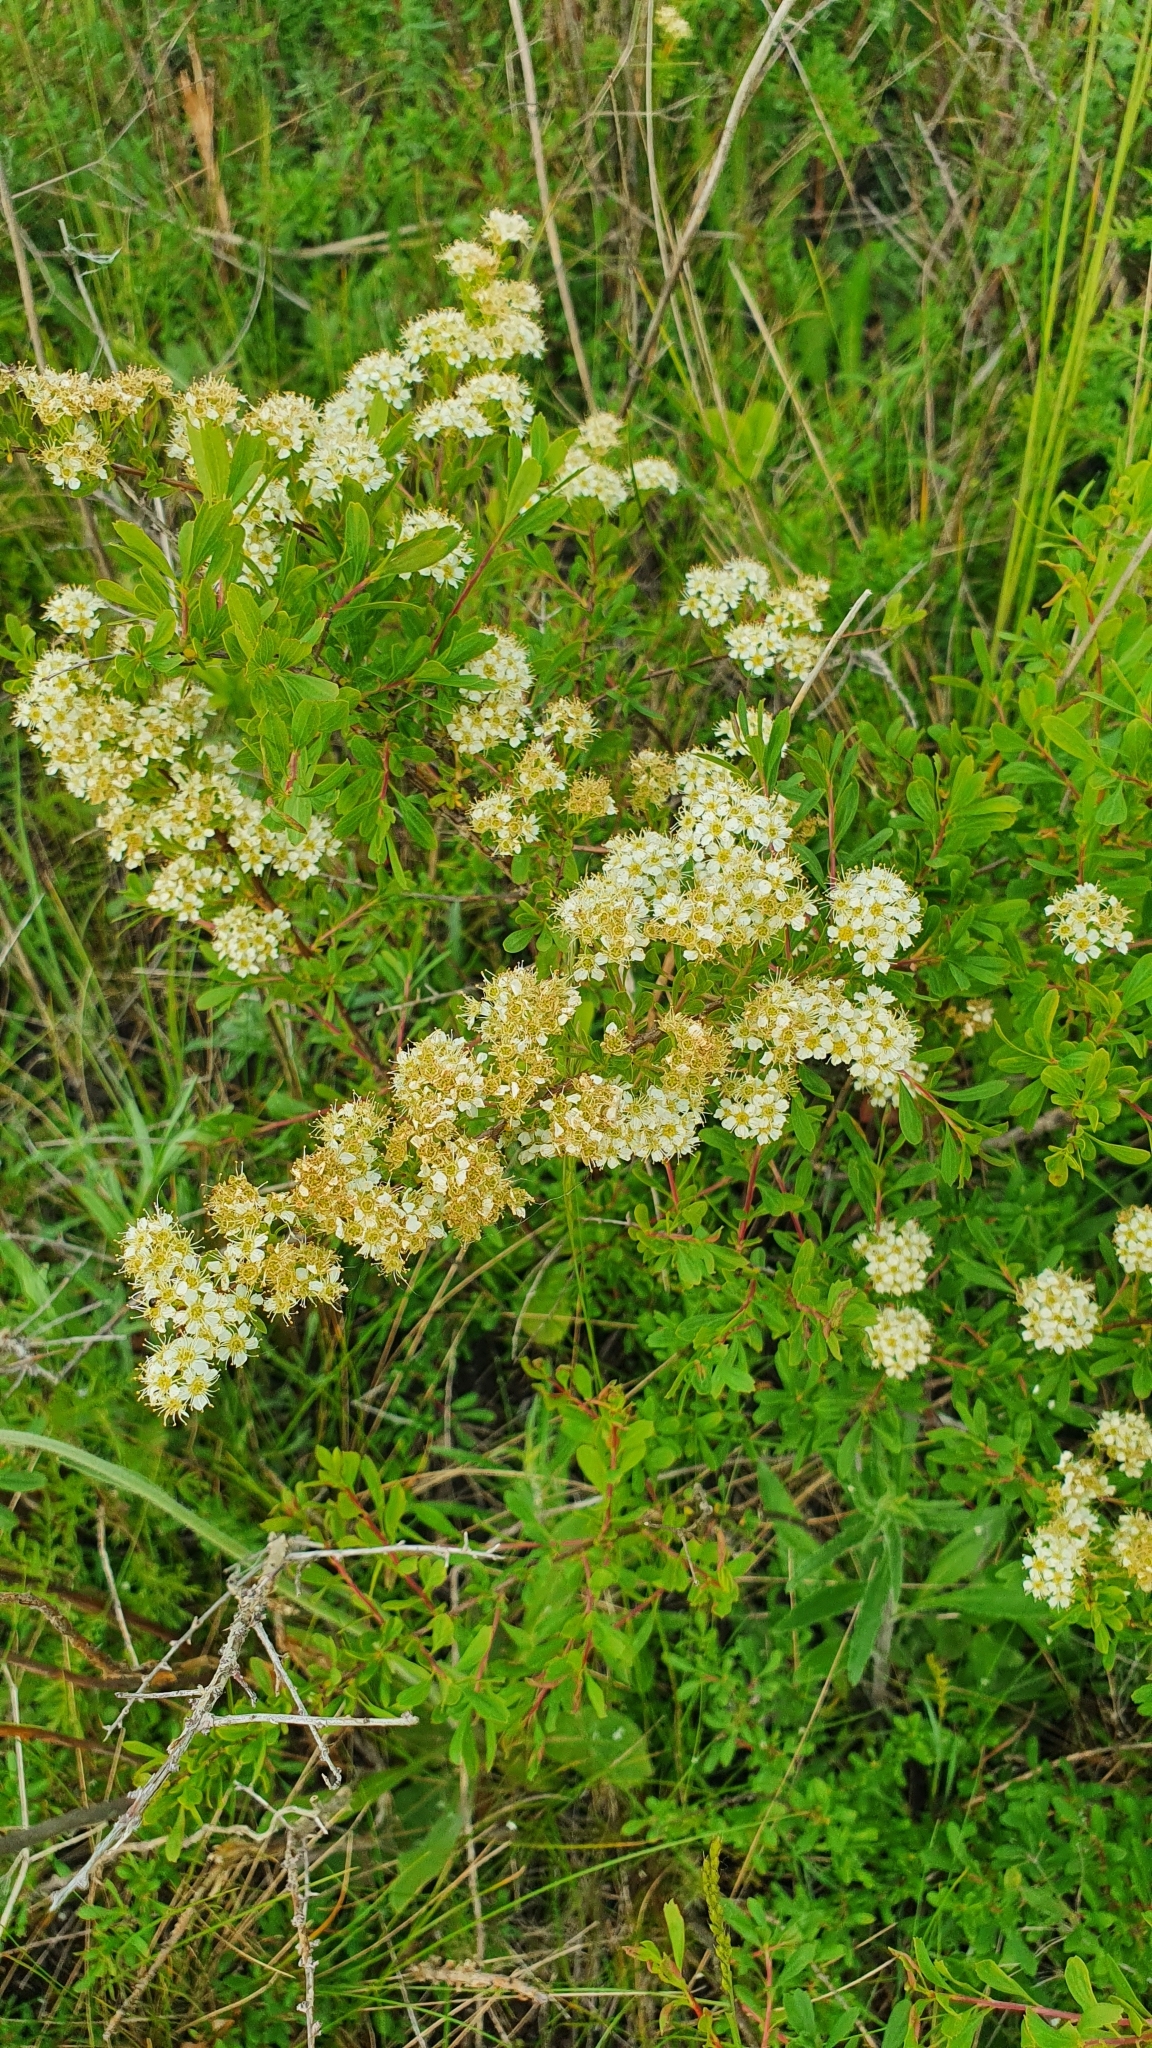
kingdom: Plantae
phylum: Tracheophyta
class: Magnoliopsida
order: Rosales
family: Rosaceae
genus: Spiraea
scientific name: Spiraea crenata
